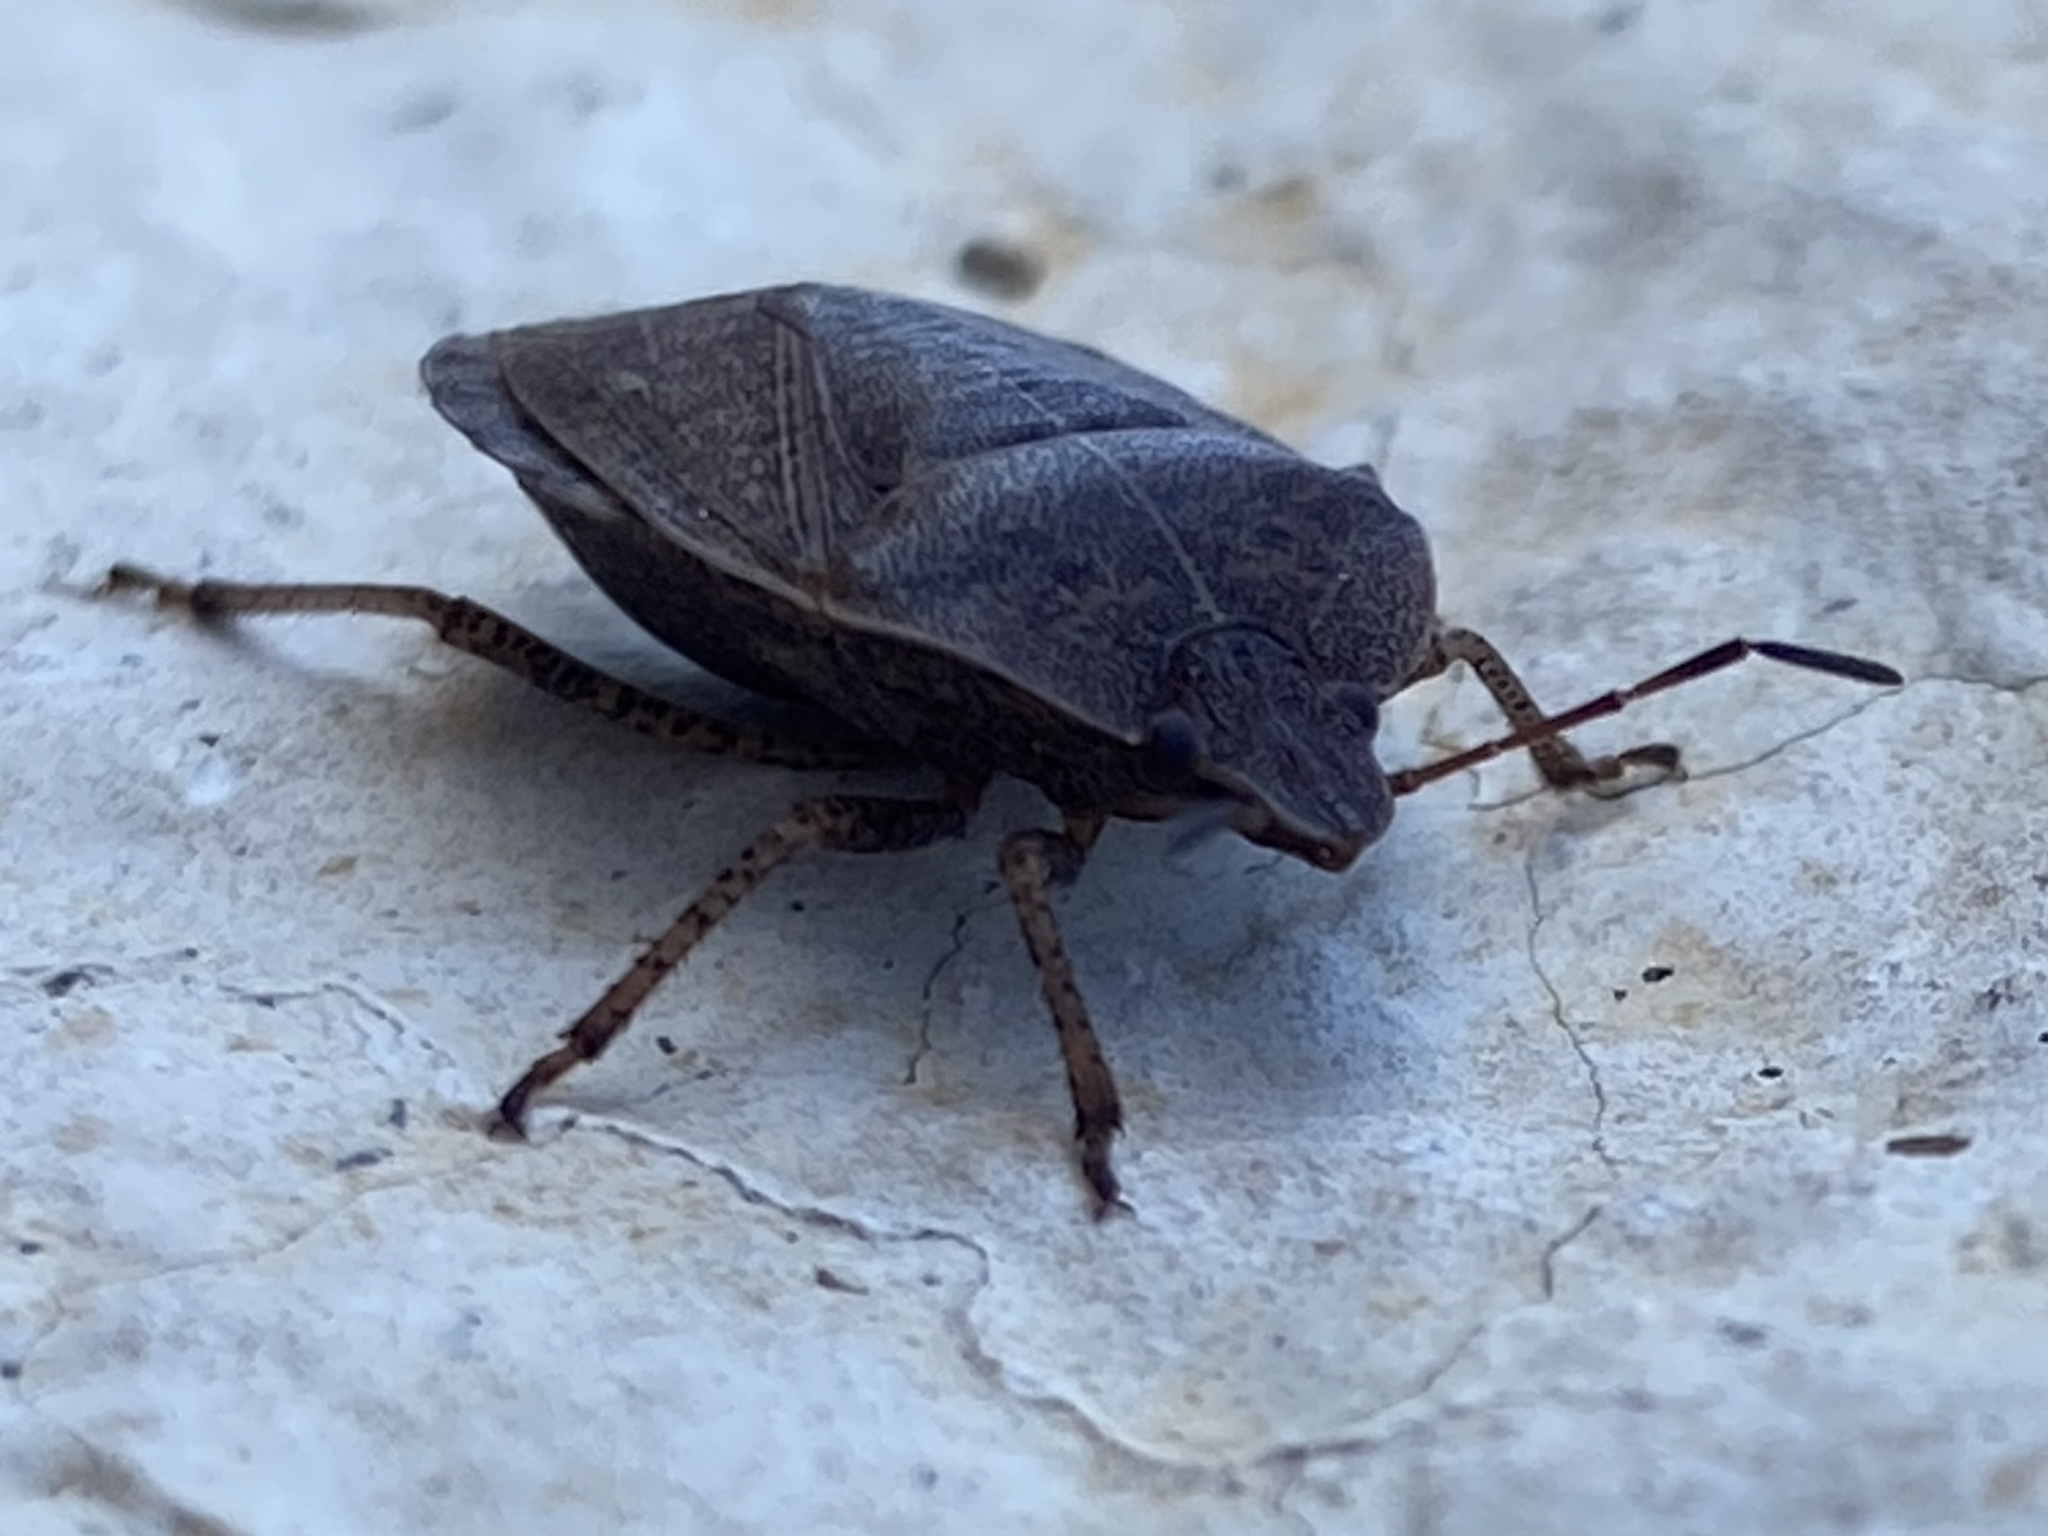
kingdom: Animalia
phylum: Arthropoda
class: Insecta
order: Hemiptera
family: Pentatomidae
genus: Menecles
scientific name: Menecles insertus
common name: Elf shoe stink bug
